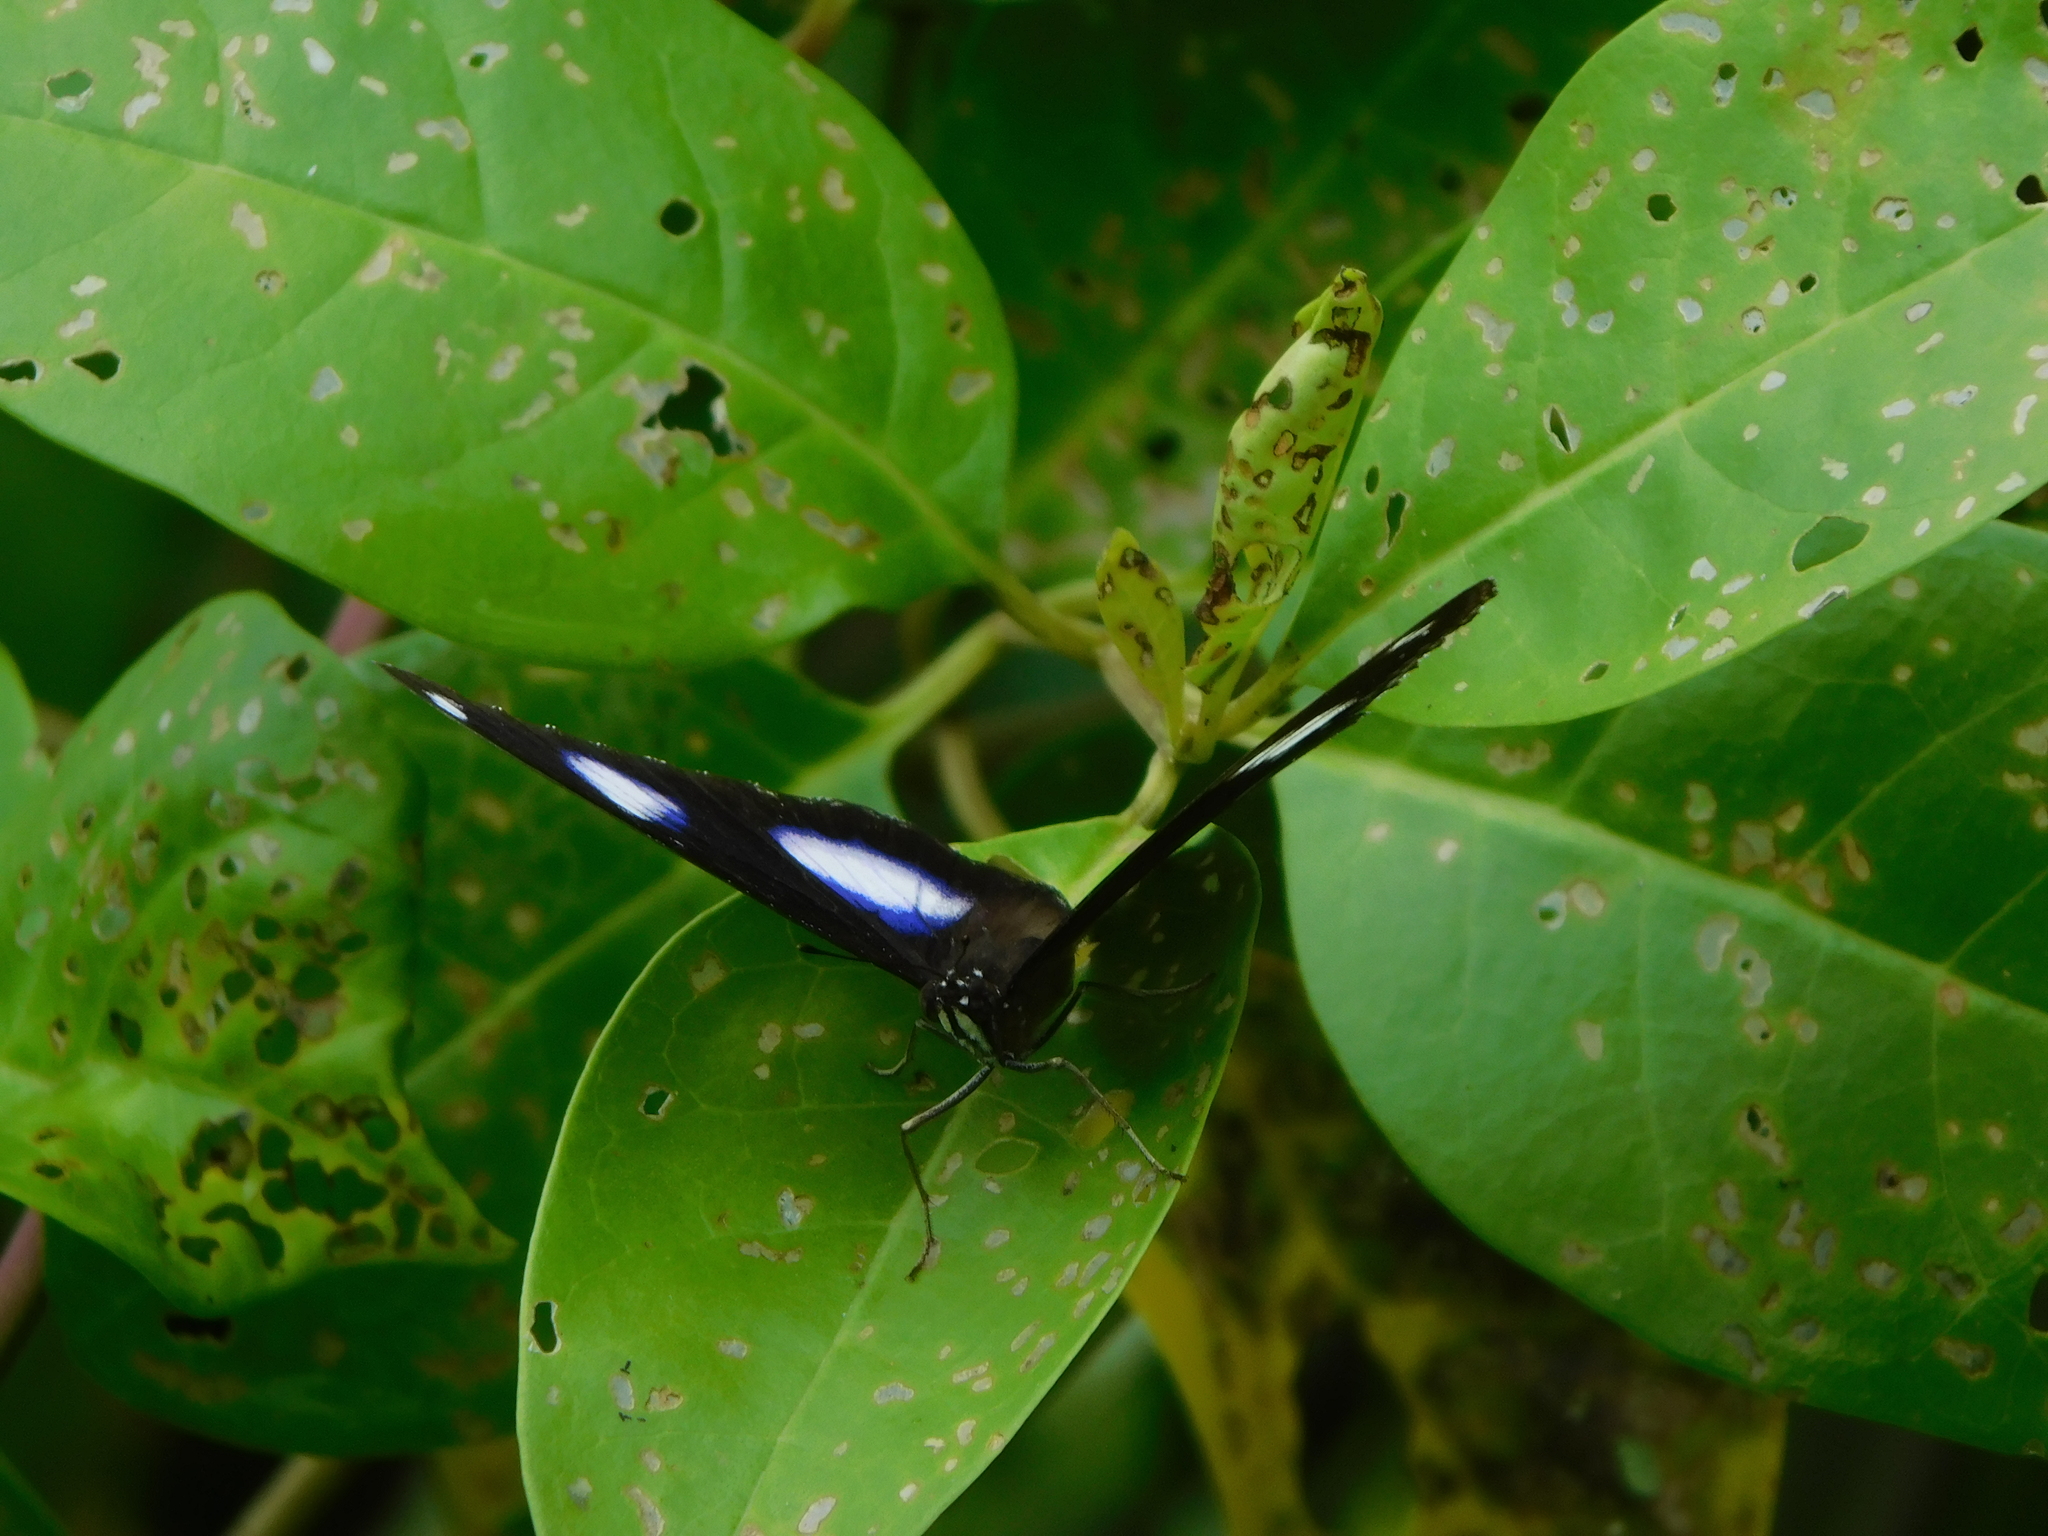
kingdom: Animalia
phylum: Arthropoda
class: Insecta
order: Lepidoptera
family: Nymphalidae
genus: Hypolimnas
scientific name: Hypolimnas bolina
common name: Great eggfly
